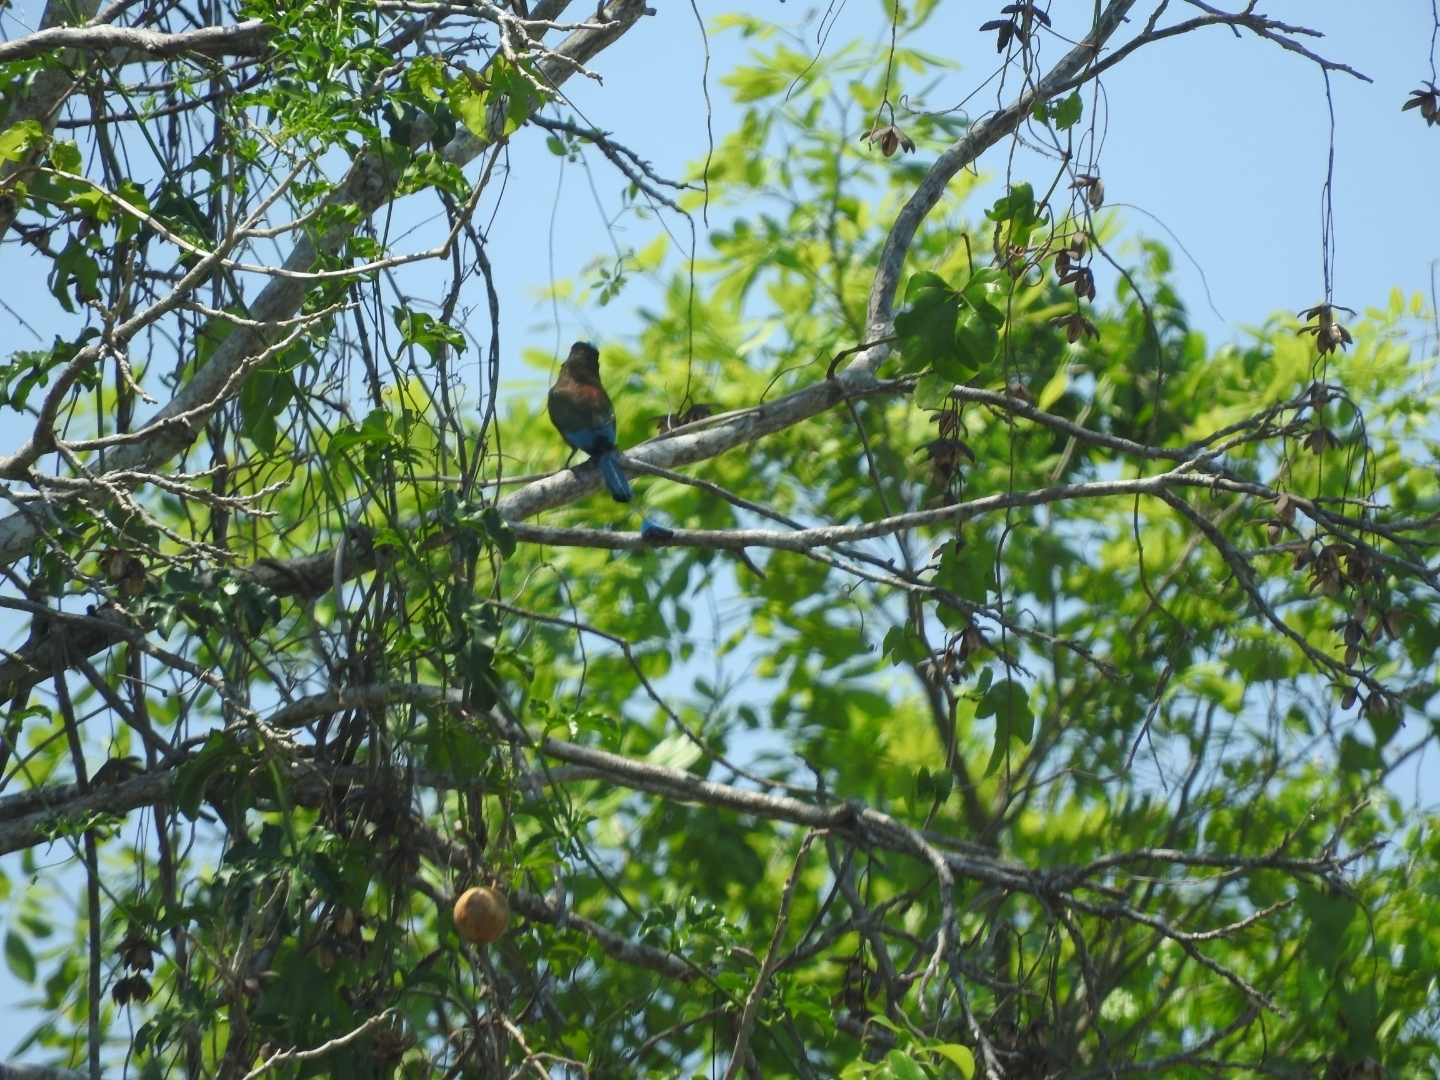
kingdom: Animalia
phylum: Chordata
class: Aves
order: Coraciiformes
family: Momotidae
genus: Eumomota
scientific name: Eumomota superciliosa
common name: Turquoise-browed motmot
